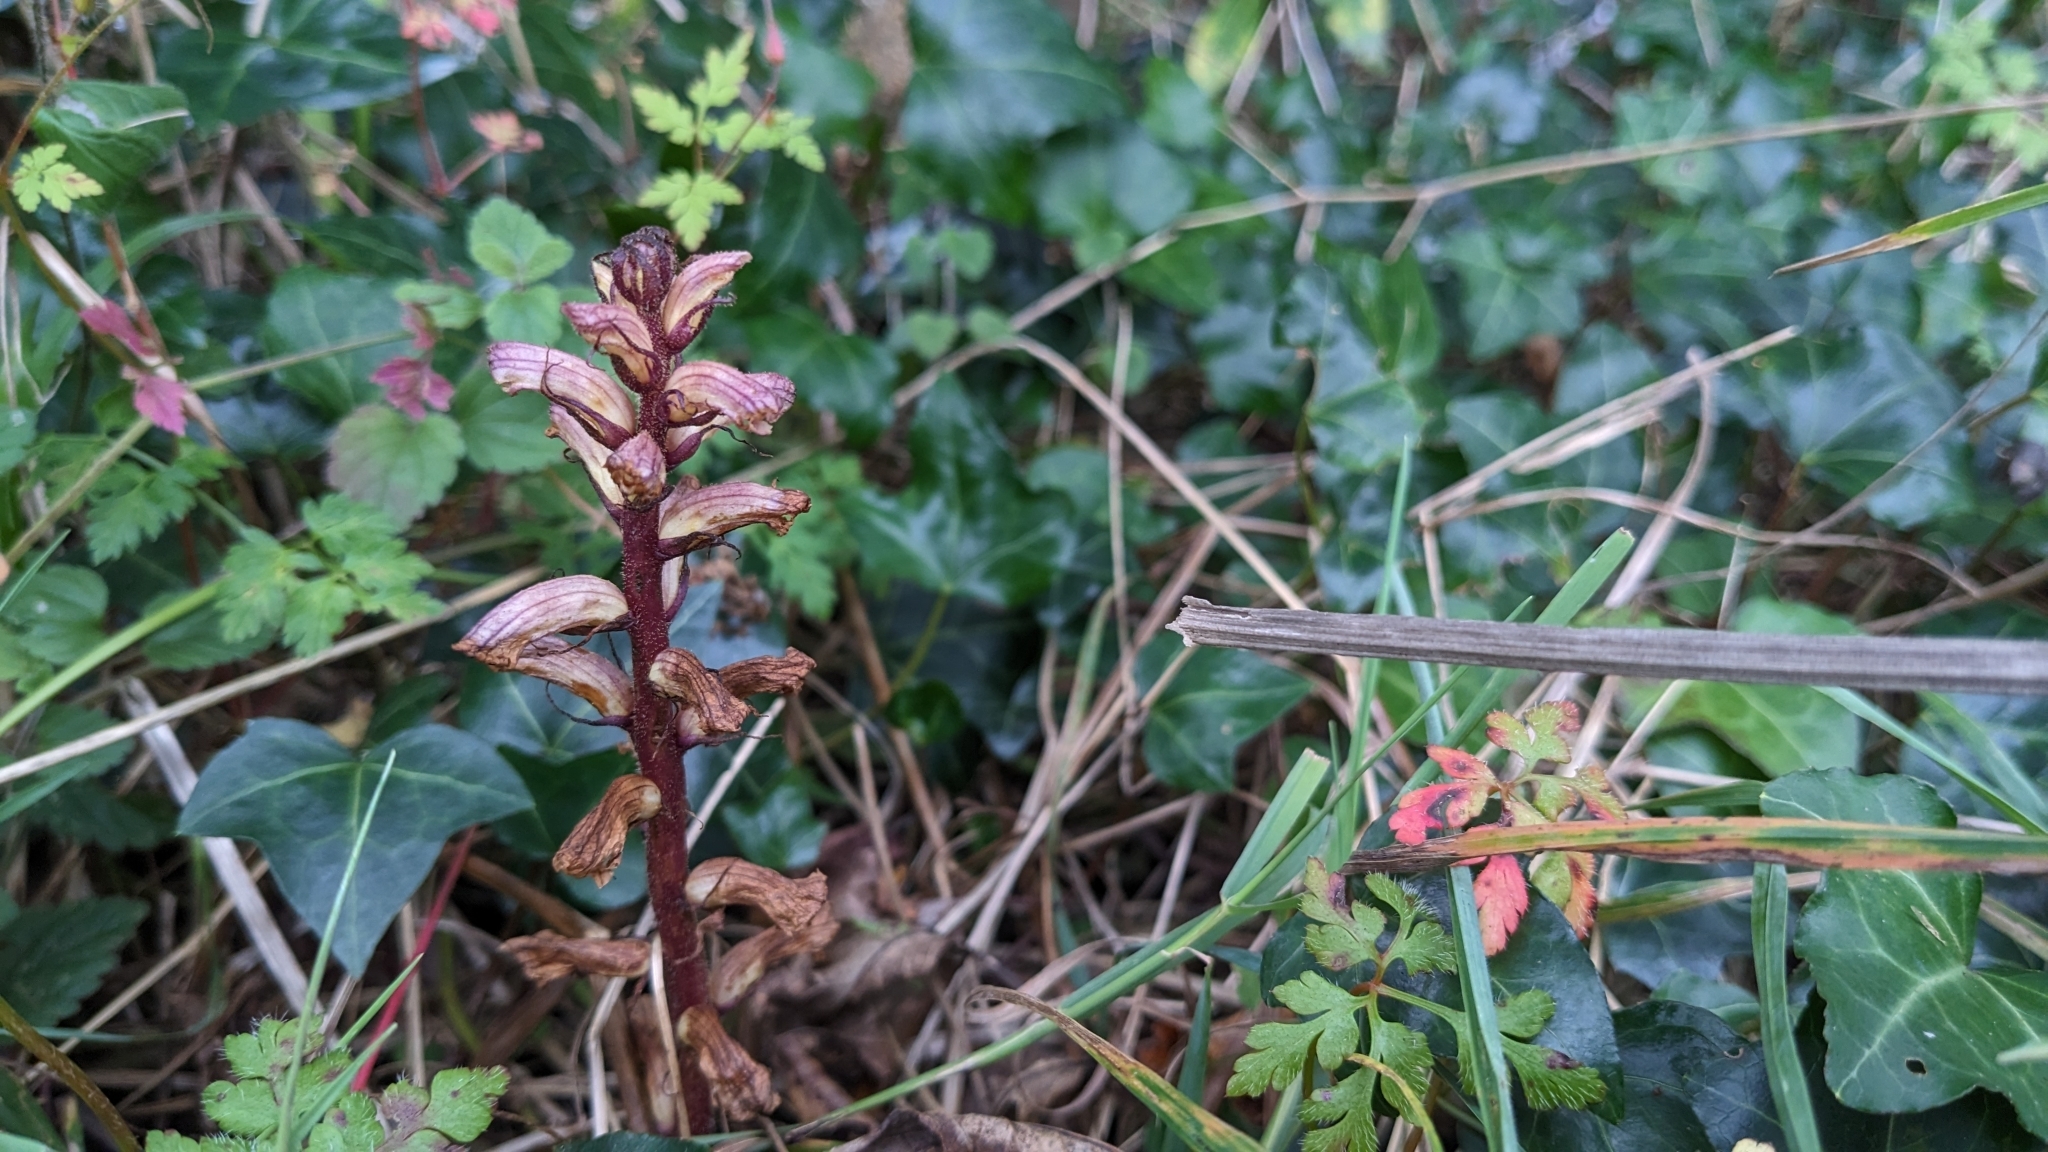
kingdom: Plantae
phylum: Tracheophyta
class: Magnoliopsida
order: Lamiales
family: Orobanchaceae
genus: Orobanche
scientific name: Orobanche hederae
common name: Ivy broomrape
